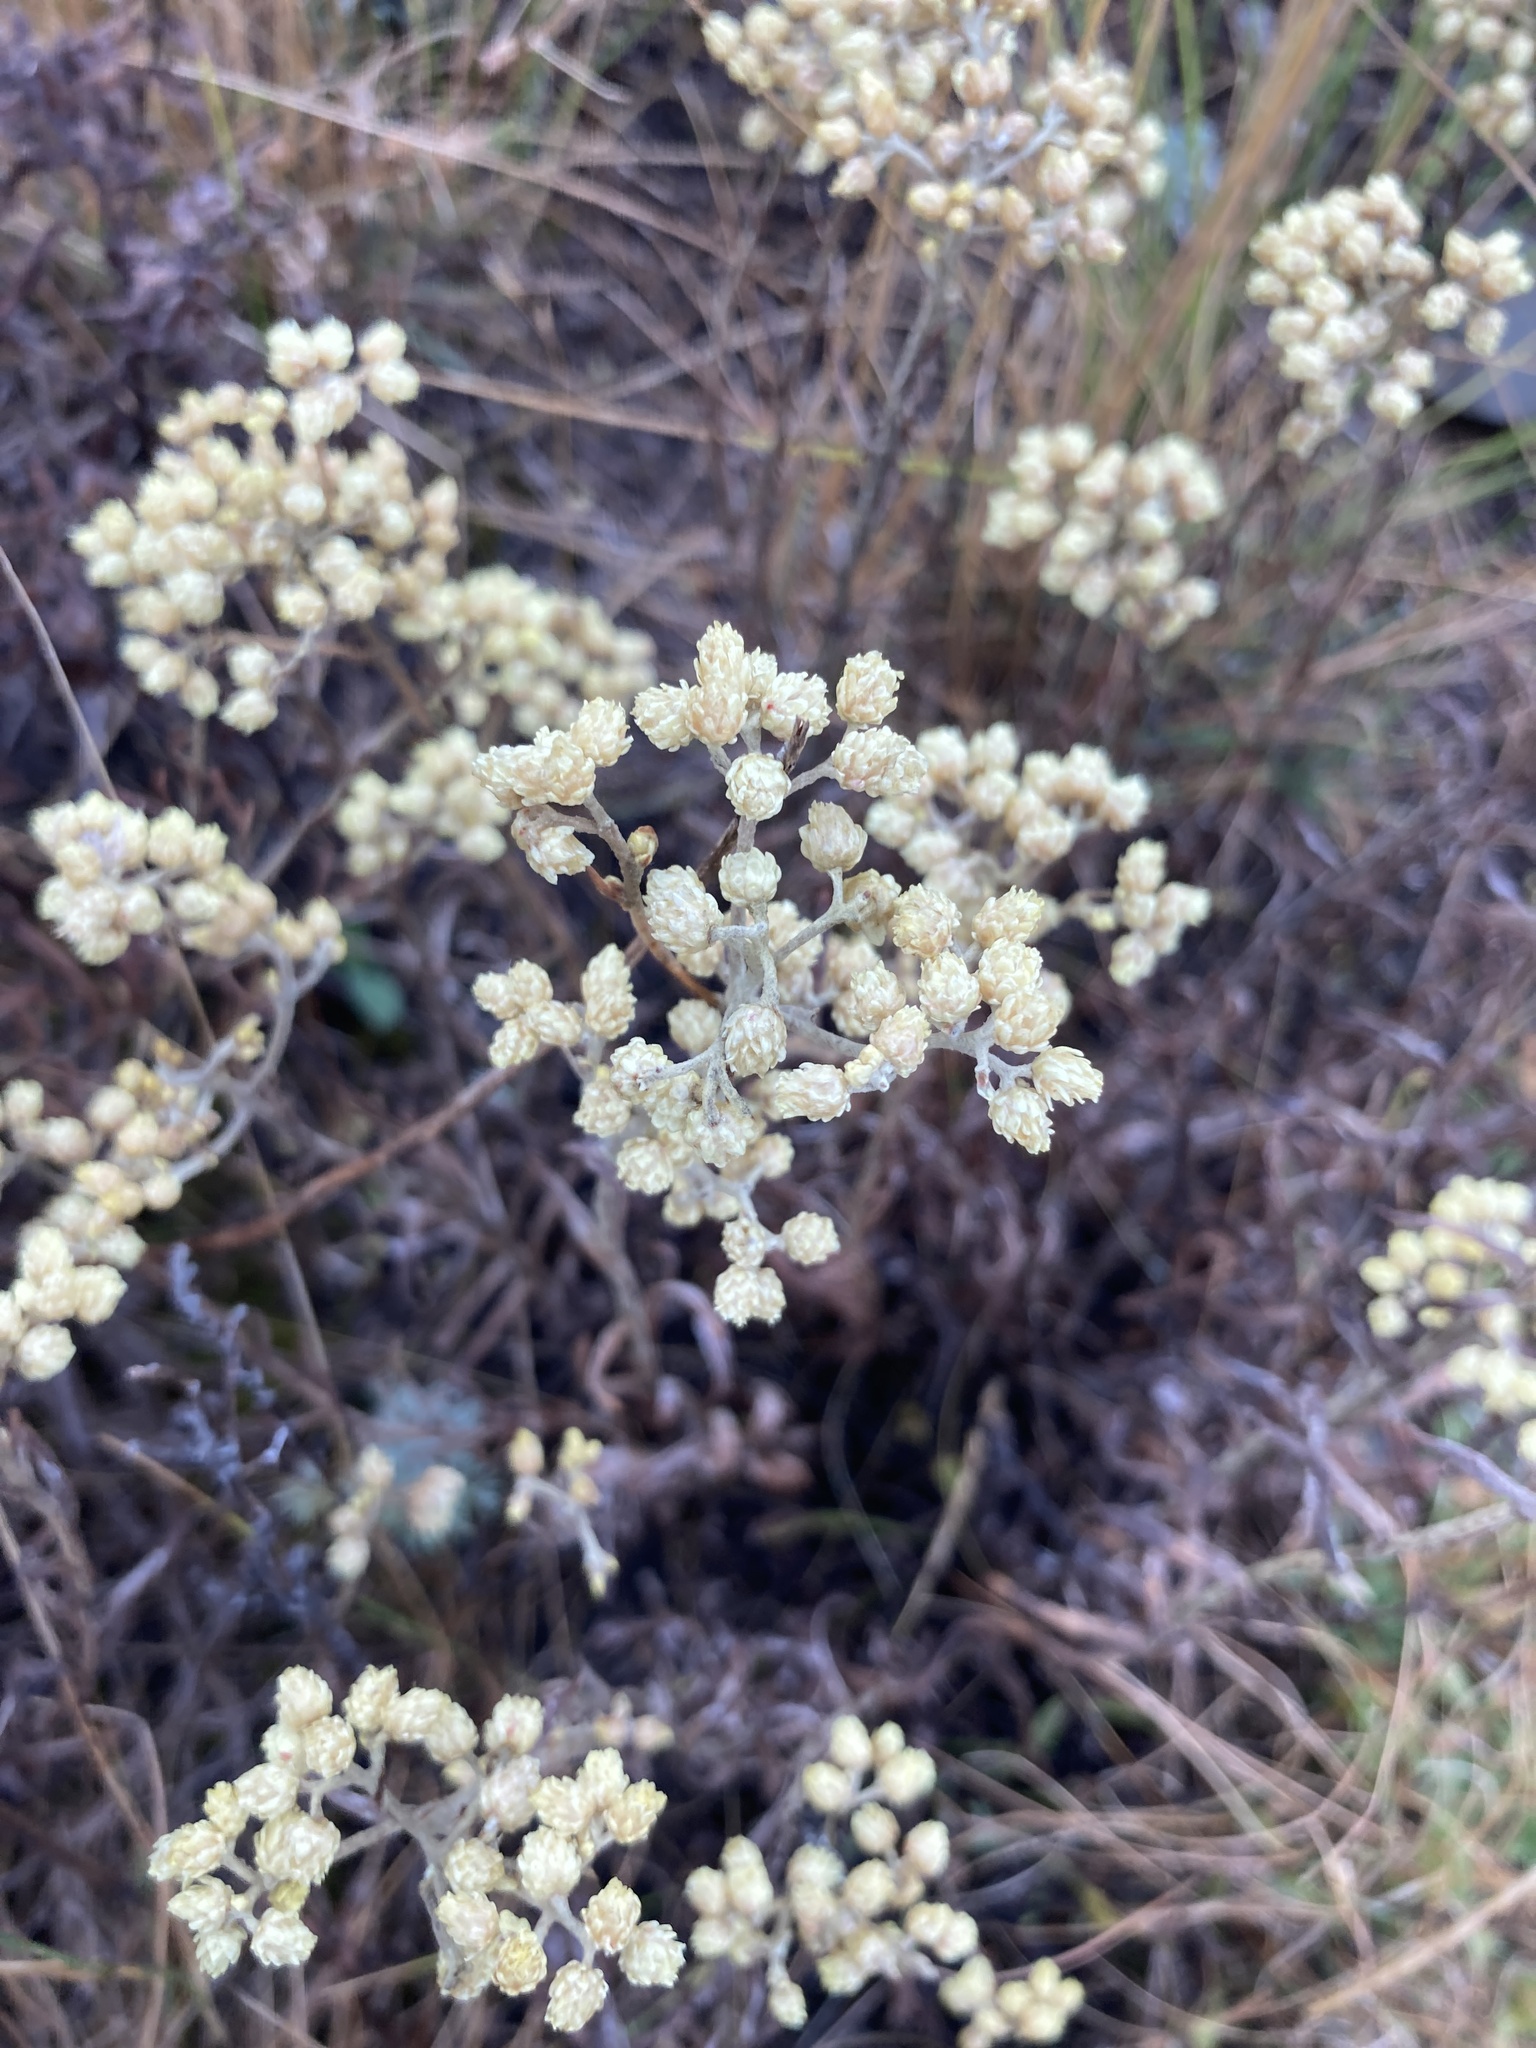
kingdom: Plantae
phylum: Tracheophyta
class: Magnoliopsida
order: Asterales
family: Asteraceae
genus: Helichrysum
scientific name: Helichrysum arenarium
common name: Strawflower
